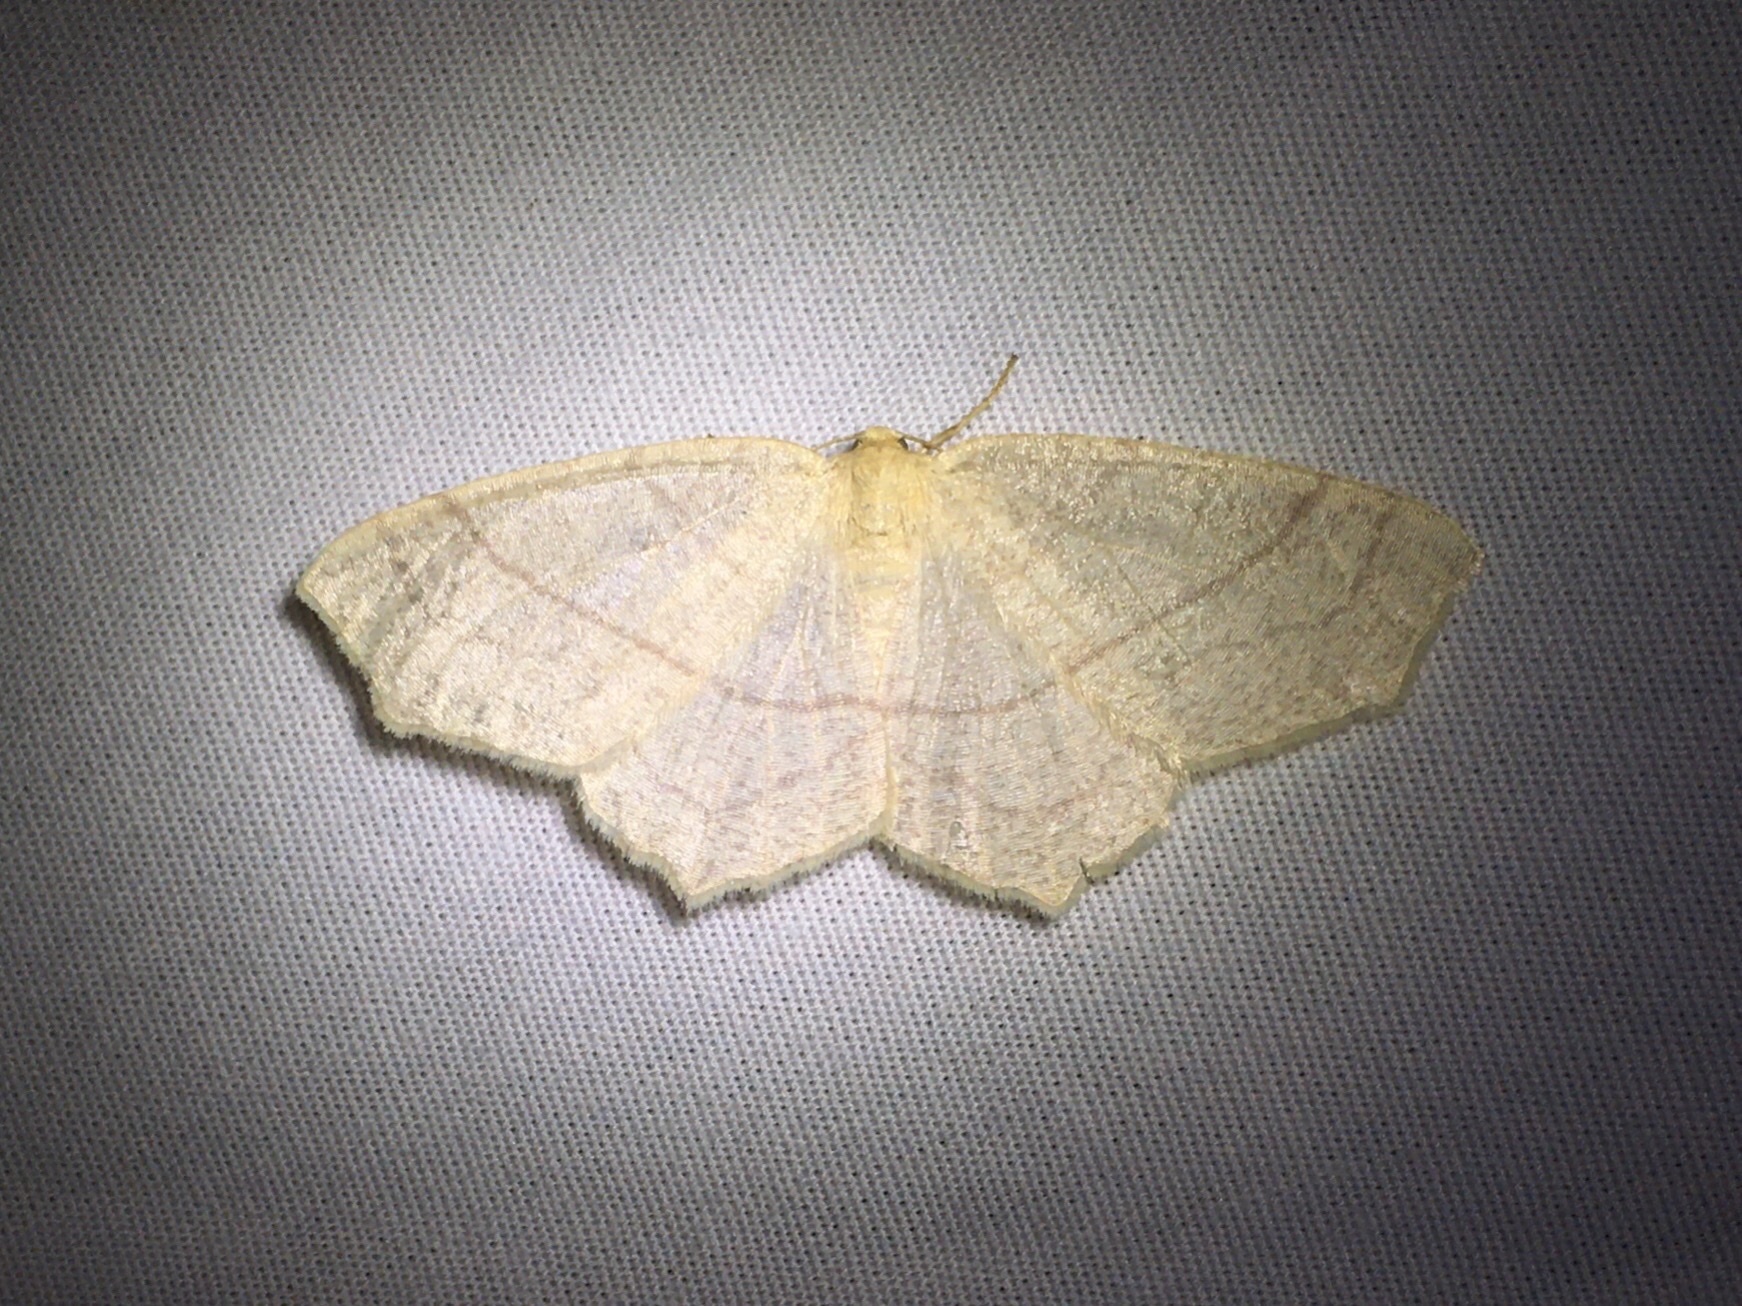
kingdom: Animalia
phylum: Arthropoda
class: Insecta
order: Lepidoptera
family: Geometridae
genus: Besma
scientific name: Besma endropiaria
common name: Straw besma
